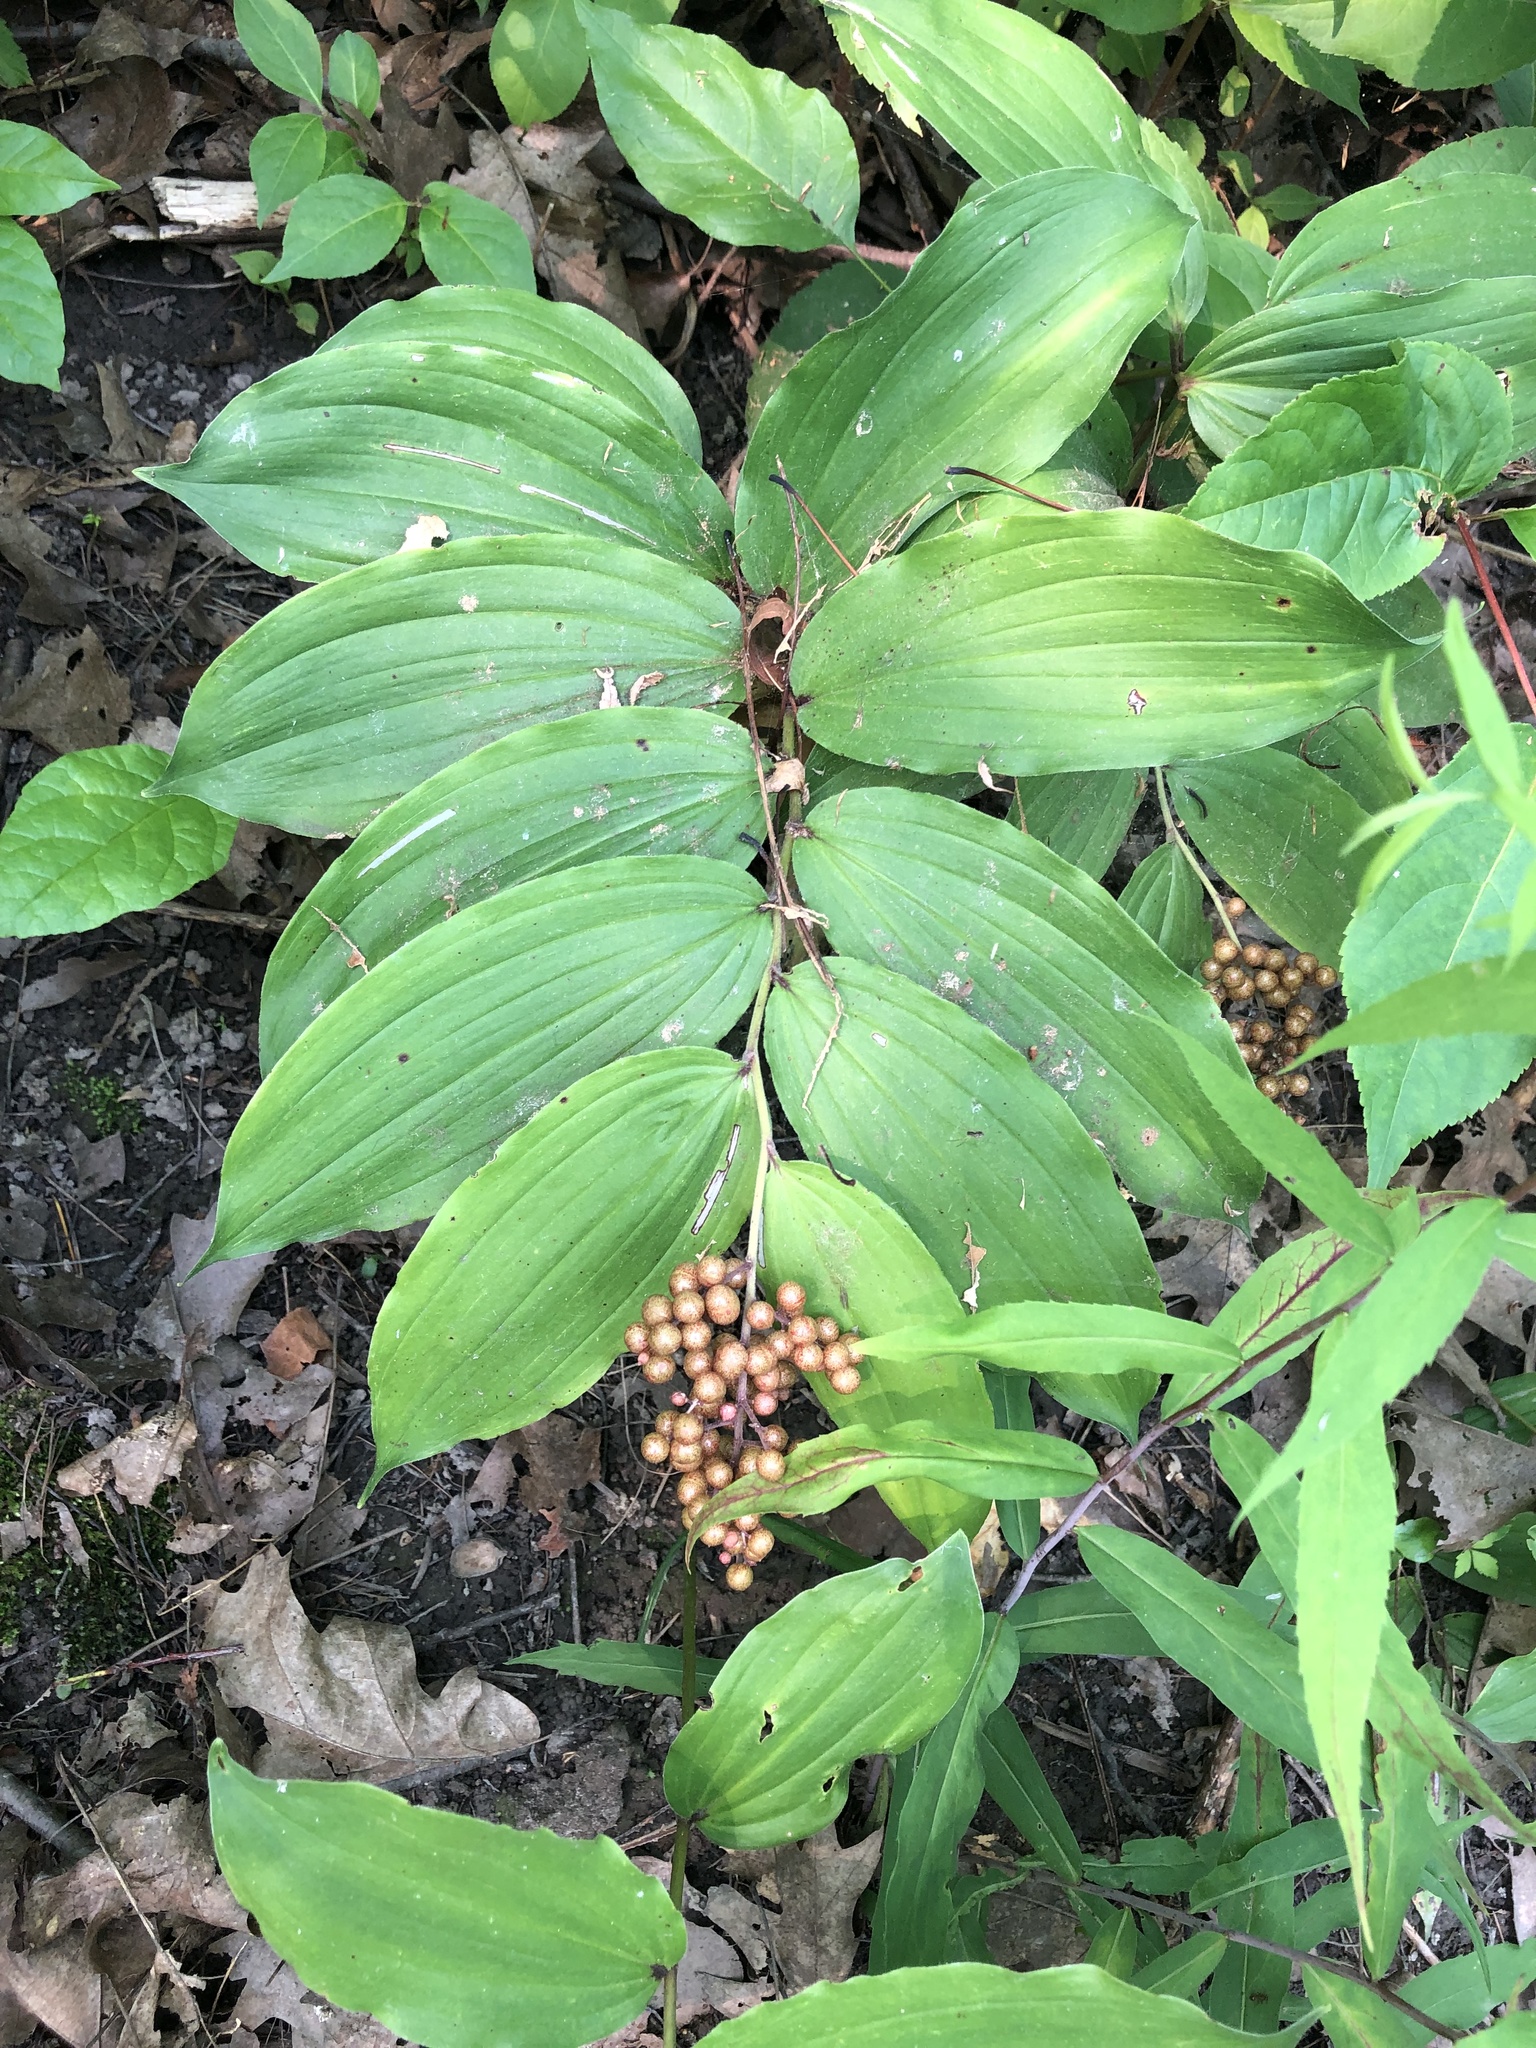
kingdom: Plantae
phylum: Tracheophyta
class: Liliopsida
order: Asparagales
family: Asparagaceae
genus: Maianthemum
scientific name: Maianthemum racemosum
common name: False spikenard
